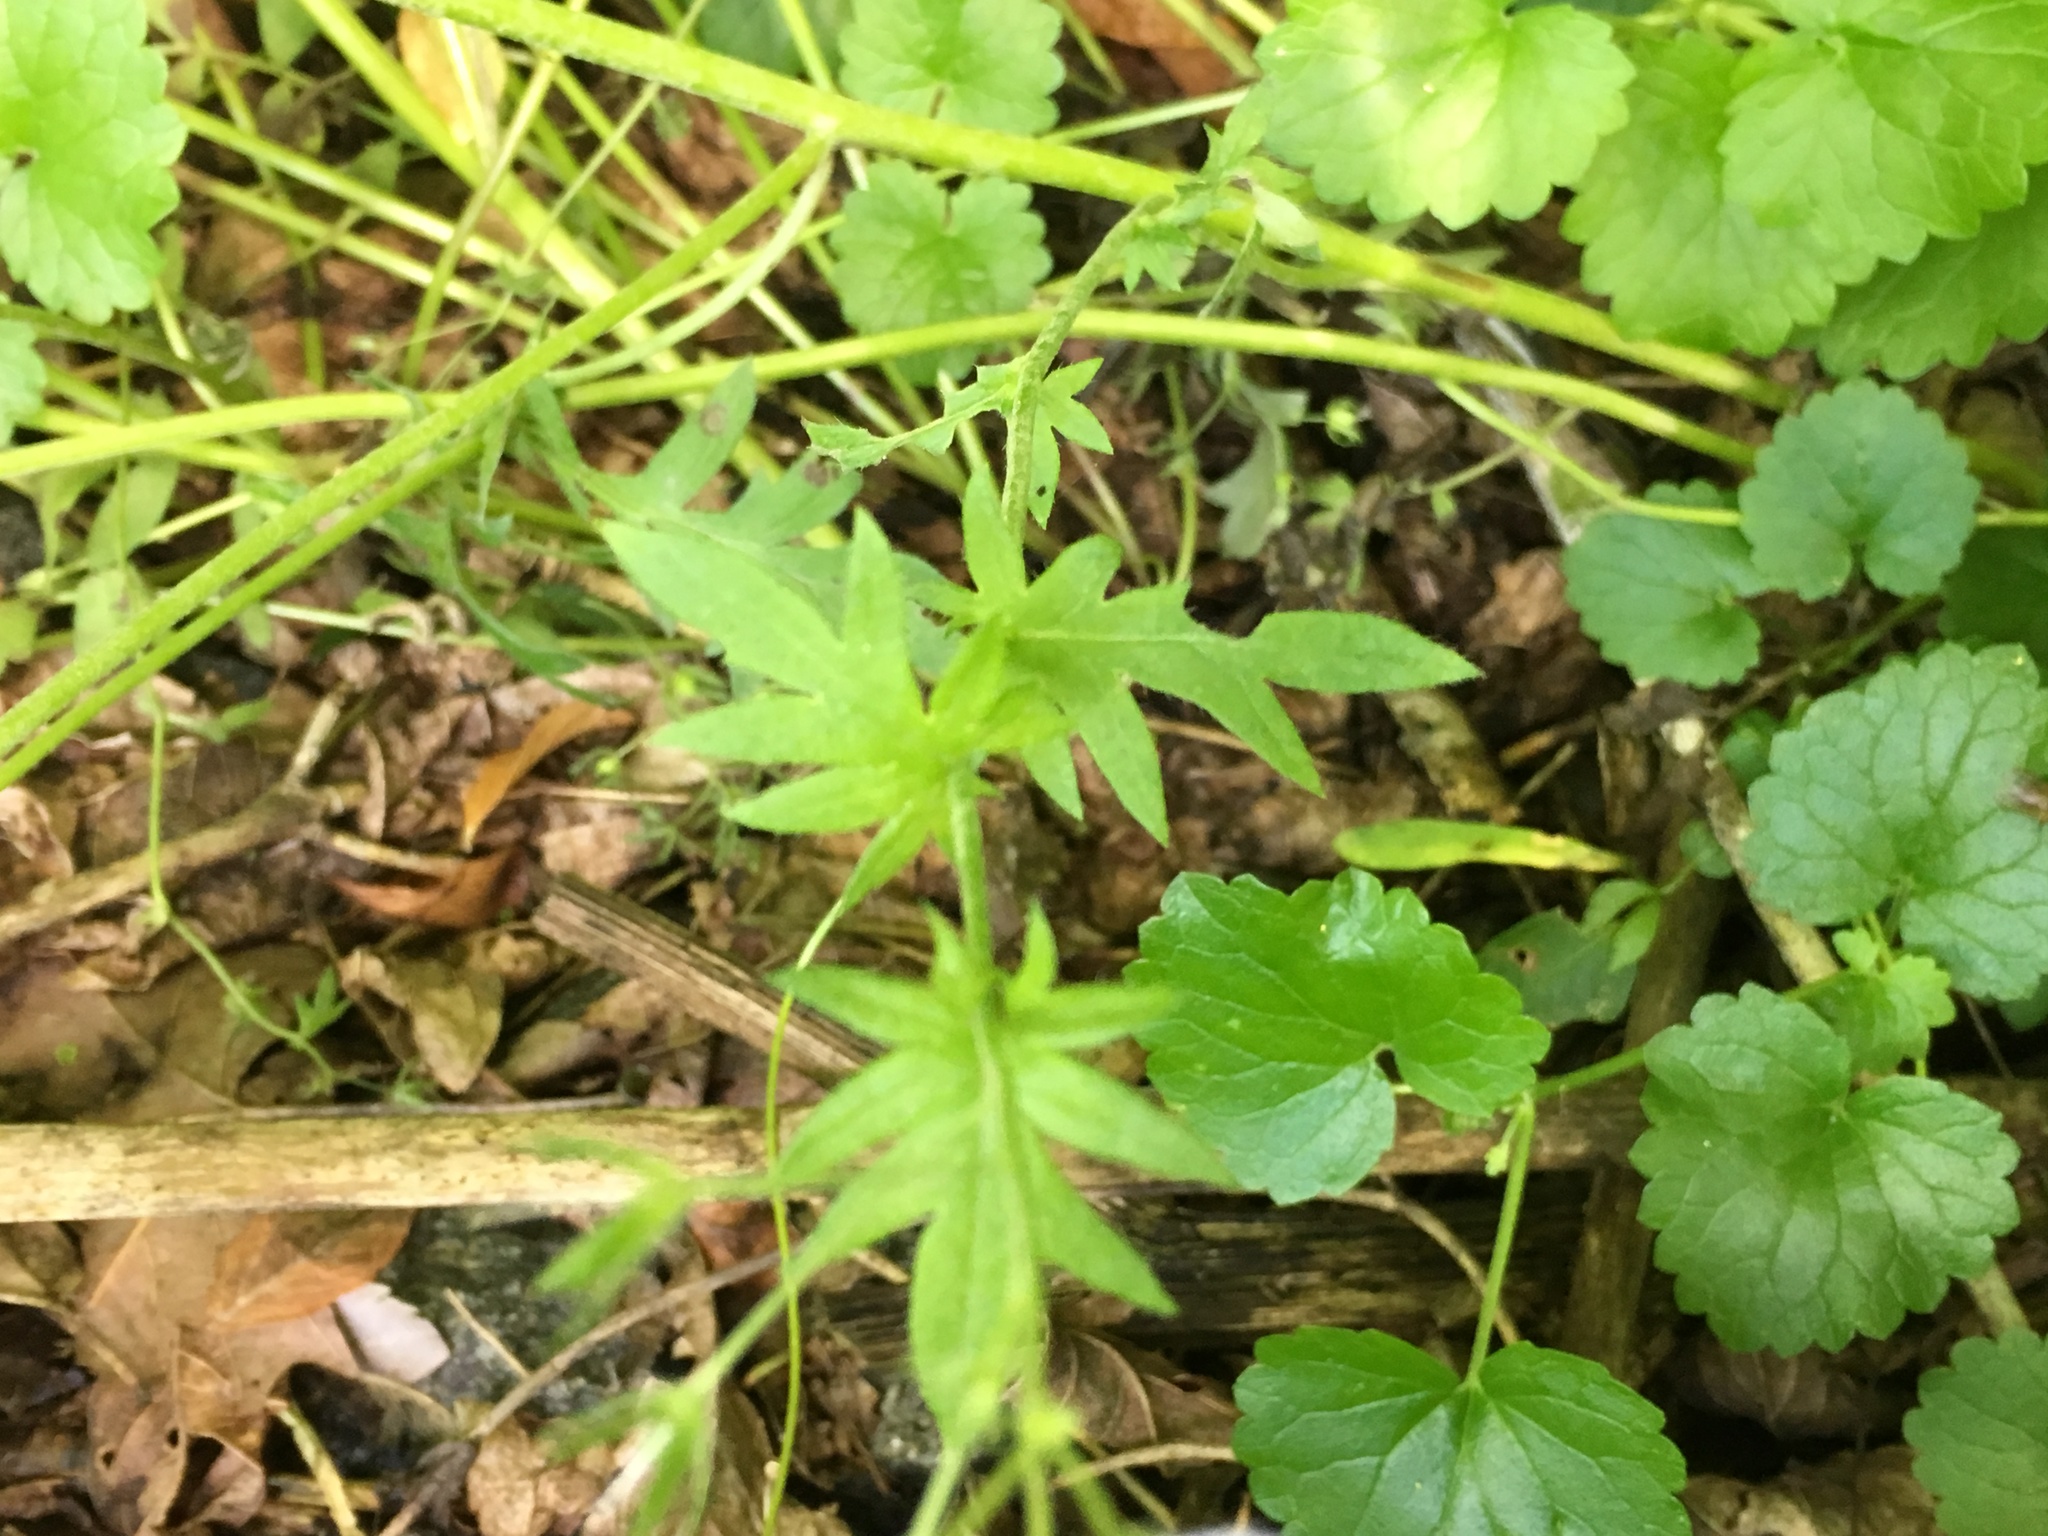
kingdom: Plantae
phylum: Tracheophyta
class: Magnoliopsida
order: Boraginales
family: Hydrophyllaceae
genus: Phacelia
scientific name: Phacelia purshii
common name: Miami-mist
